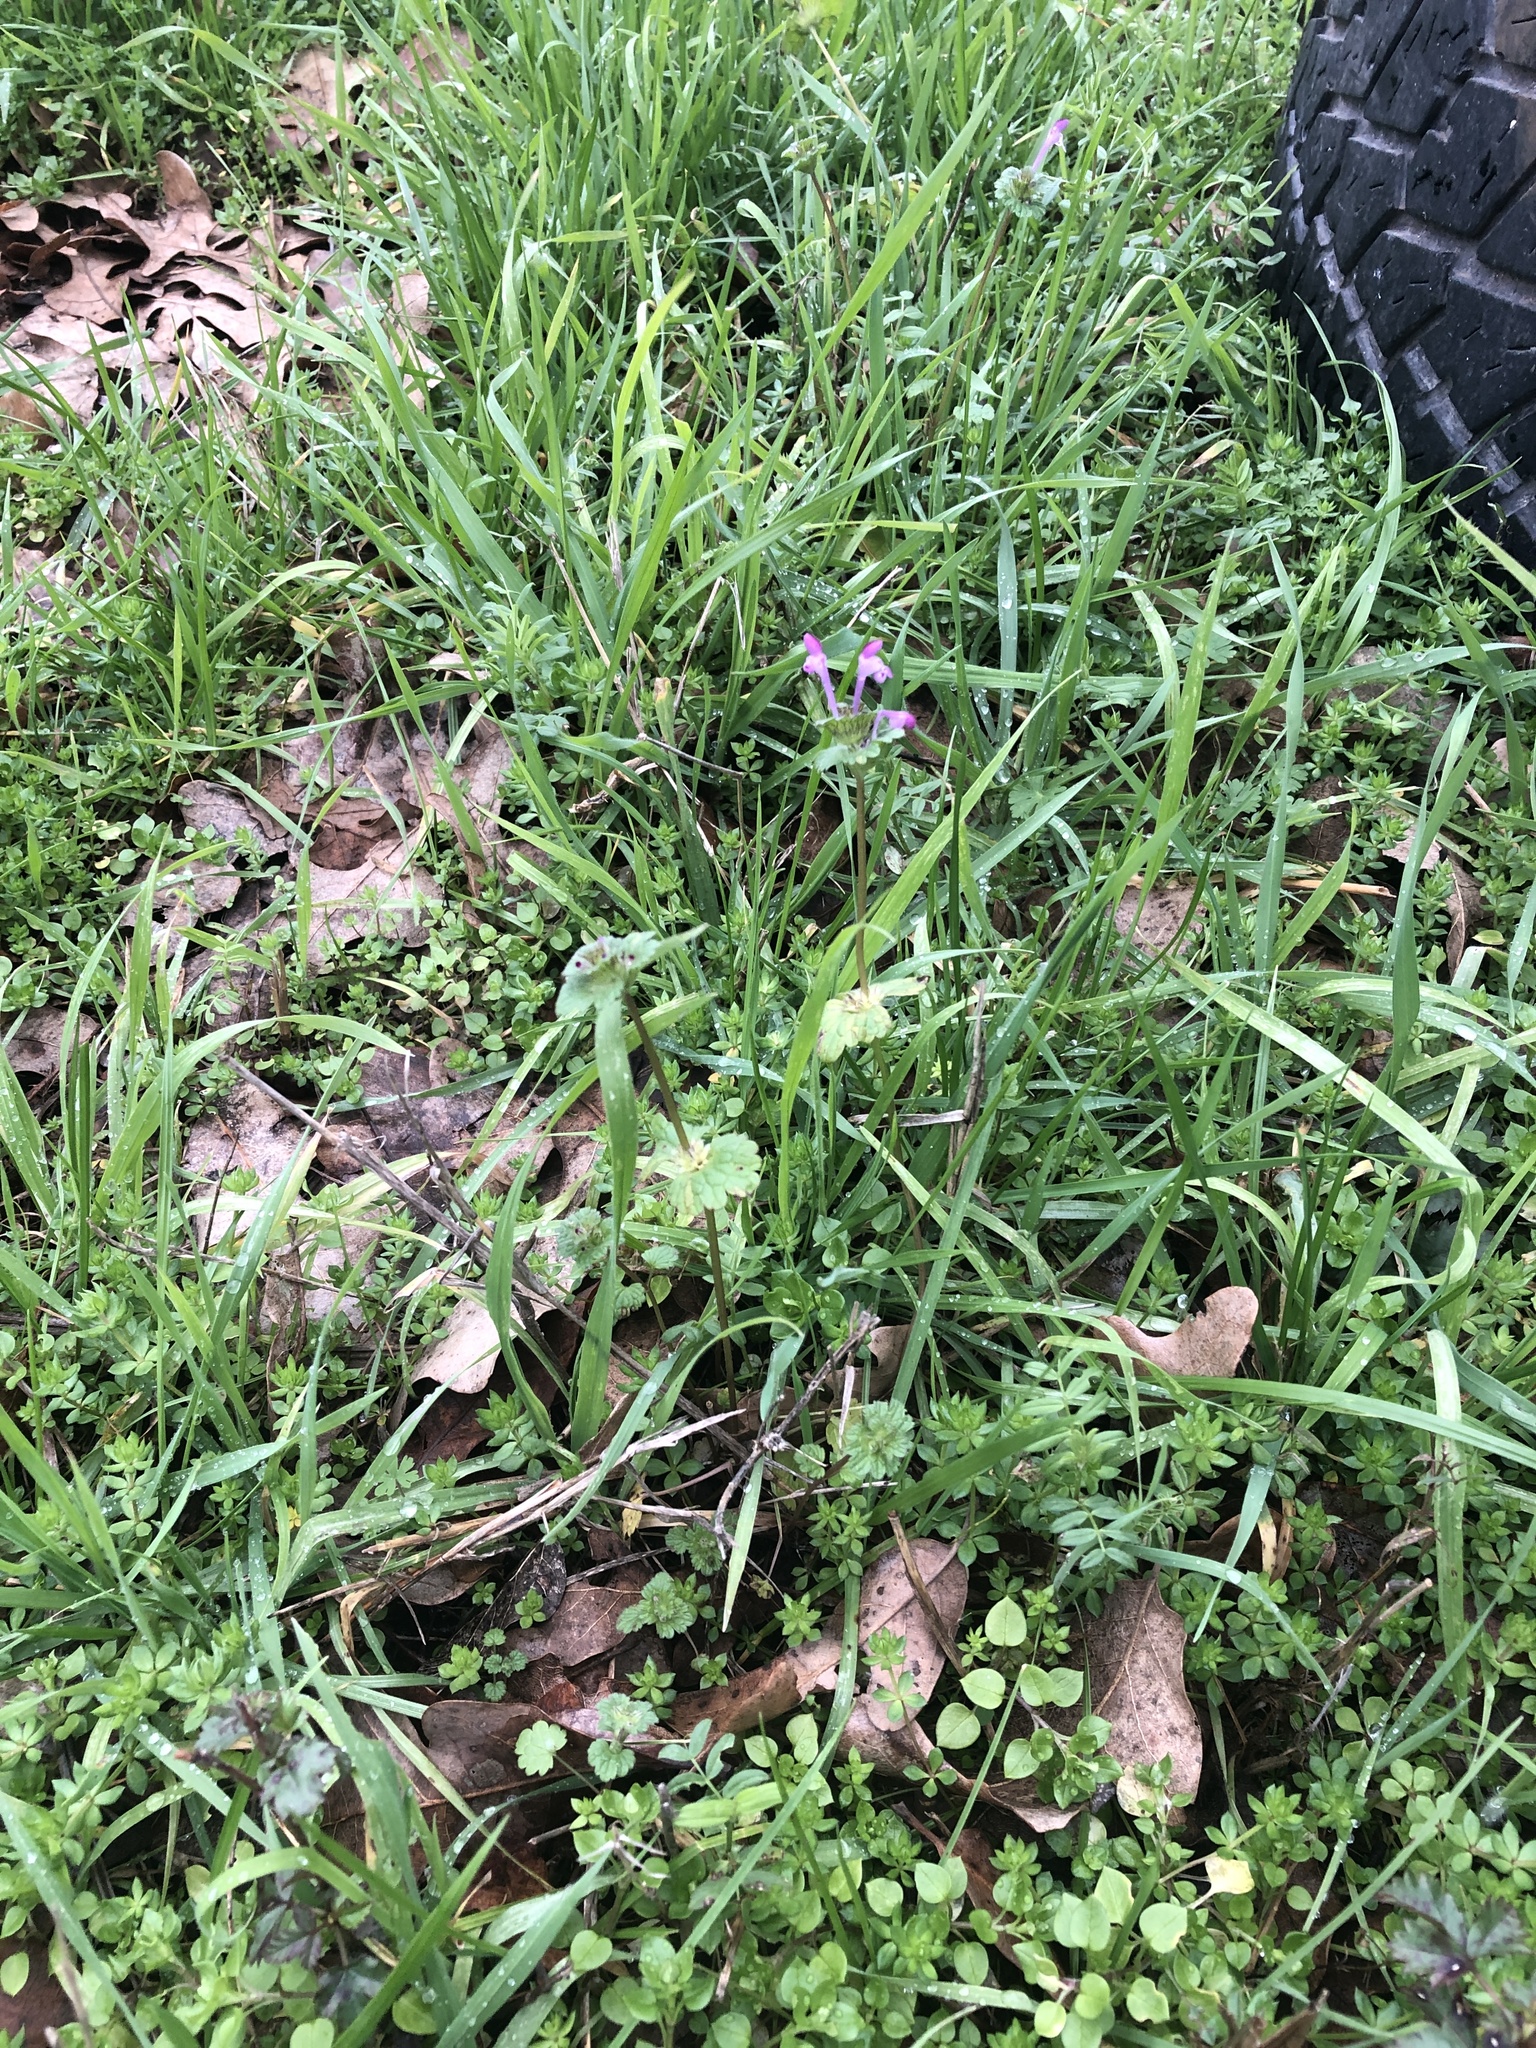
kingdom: Plantae
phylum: Tracheophyta
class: Magnoliopsida
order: Lamiales
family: Lamiaceae
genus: Lamium
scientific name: Lamium amplexicaule
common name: Henbit dead-nettle
